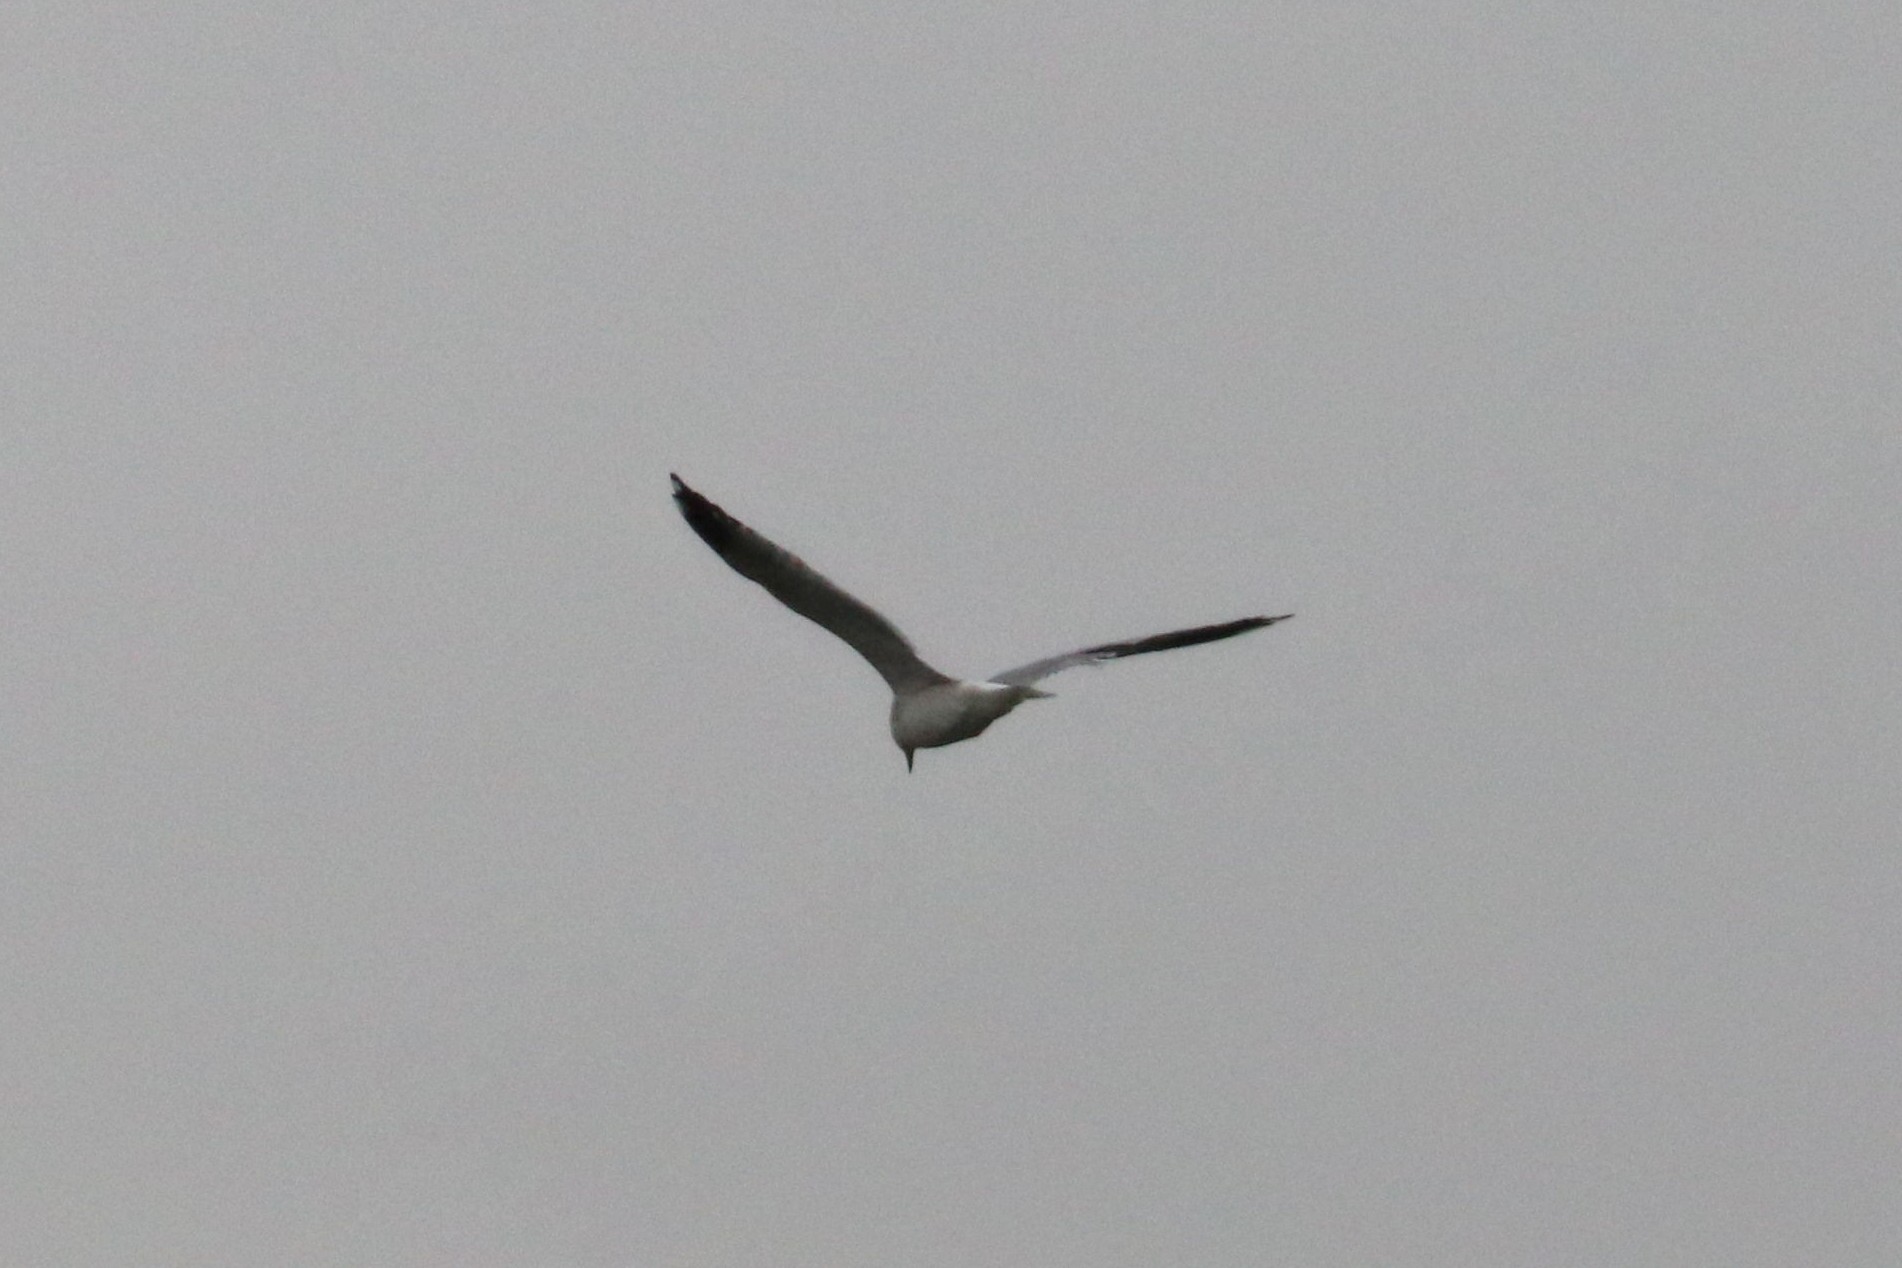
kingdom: Animalia
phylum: Chordata
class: Aves
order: Charadriiformes
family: Laridae
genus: Larus
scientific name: Larus canus
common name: Mew gull
